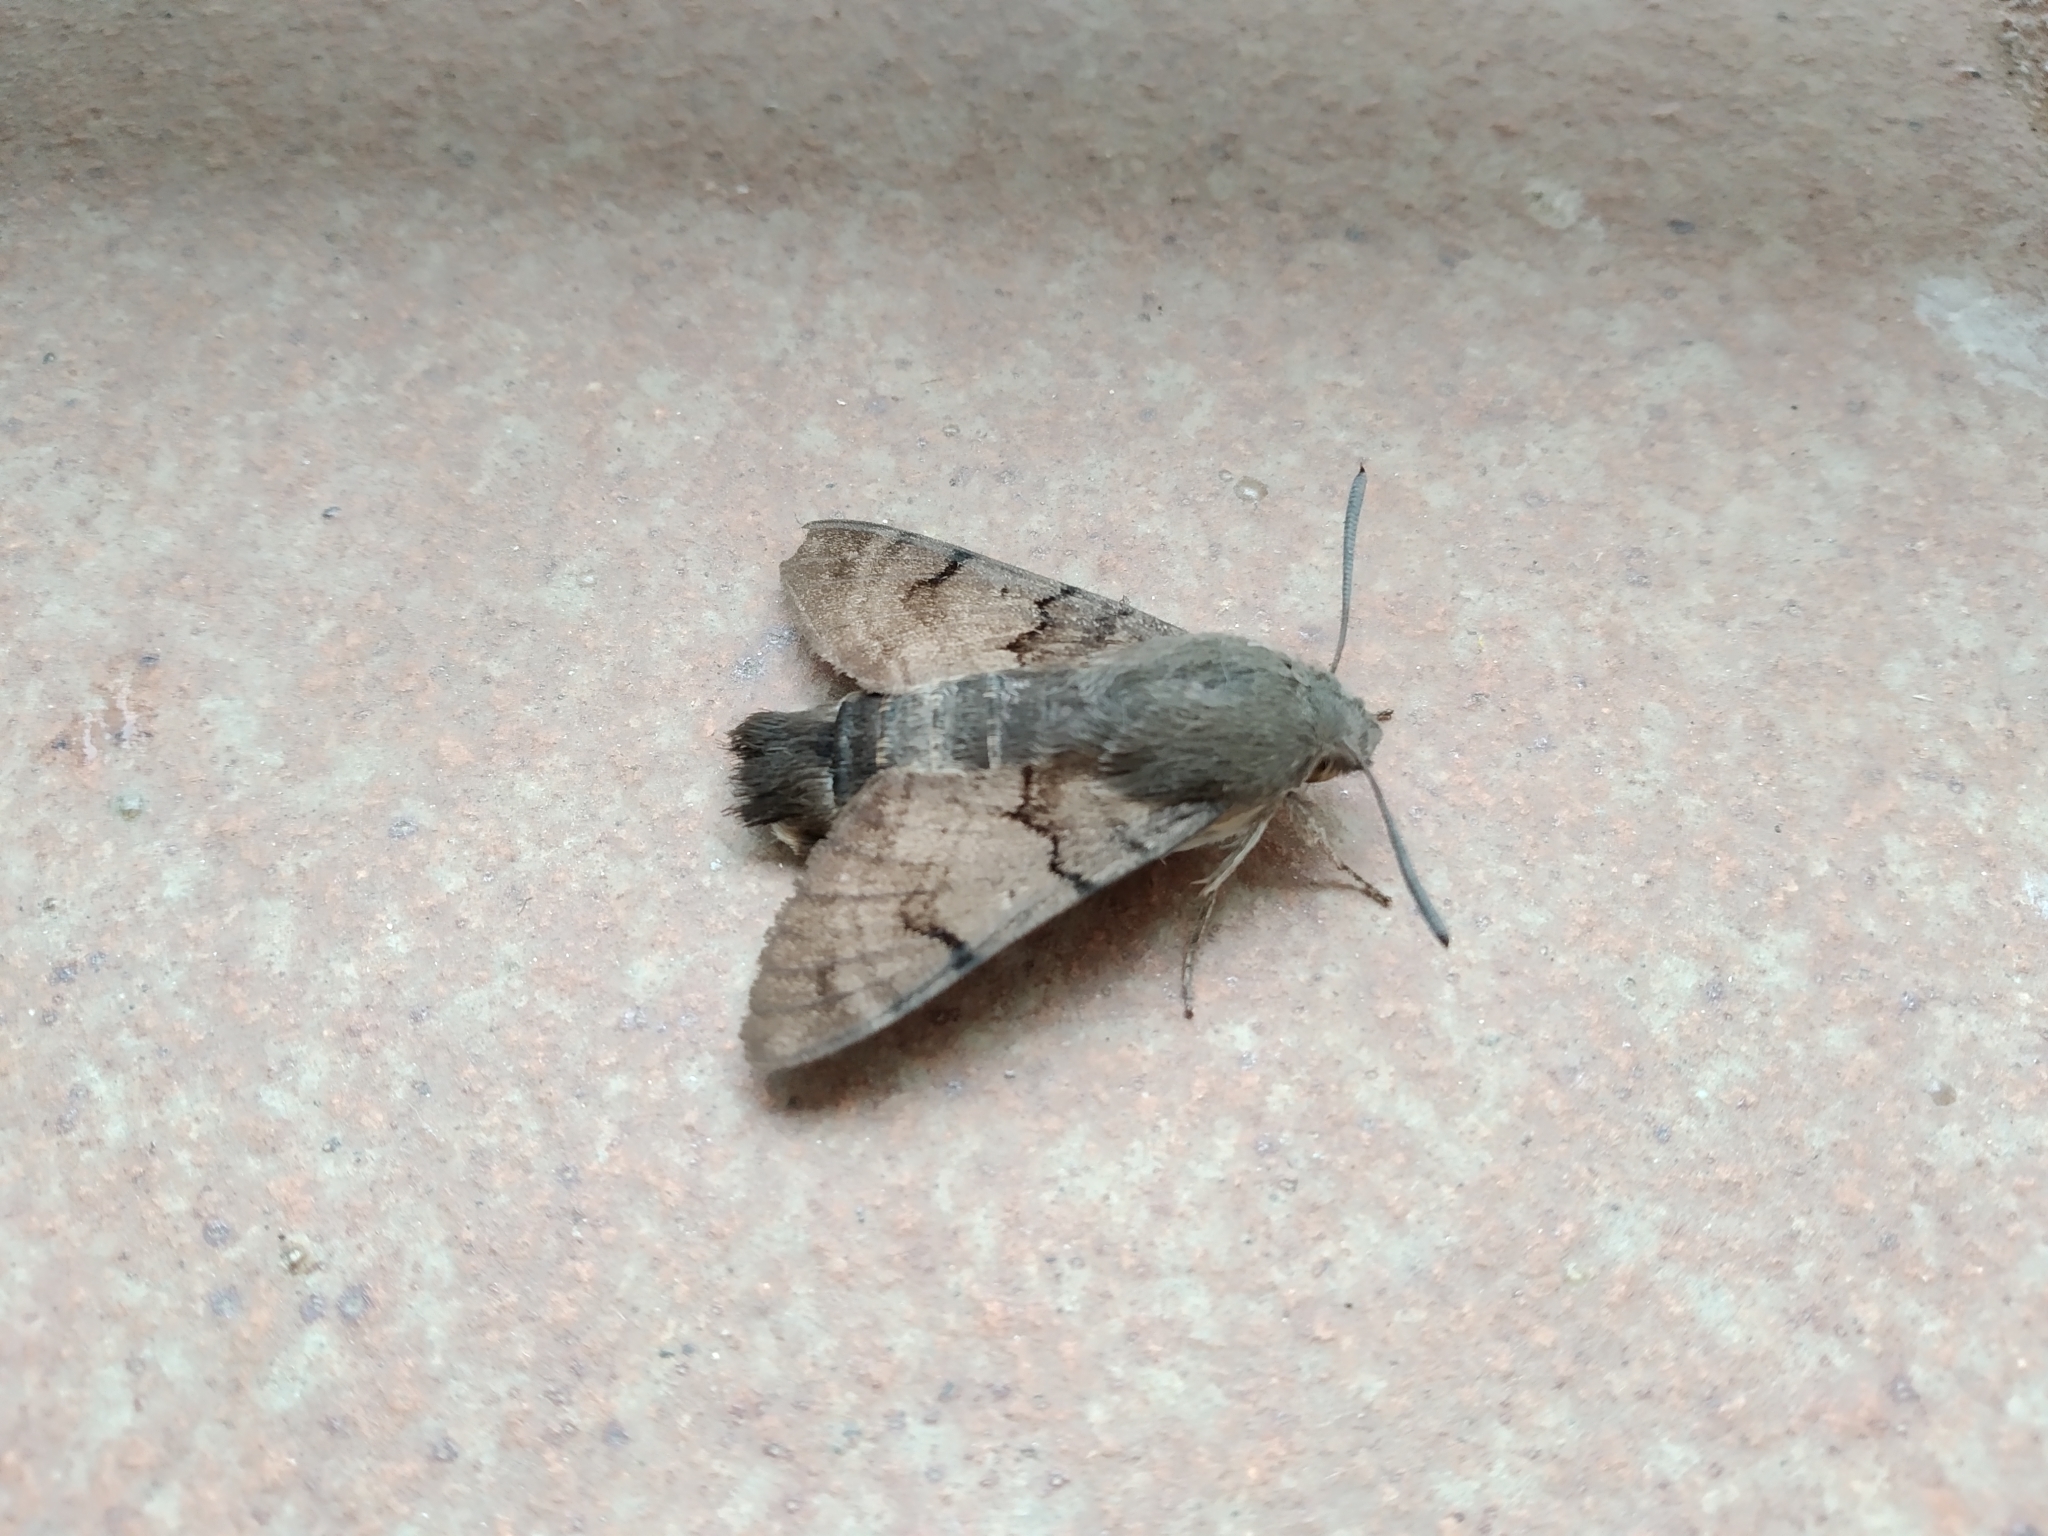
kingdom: Animalia
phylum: Arthropoda
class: Insecta
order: Lepidoptera
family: Sphingidae
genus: Macroglossum
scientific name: Macroglossum stellatarum
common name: Humming-bird hawk-moth
